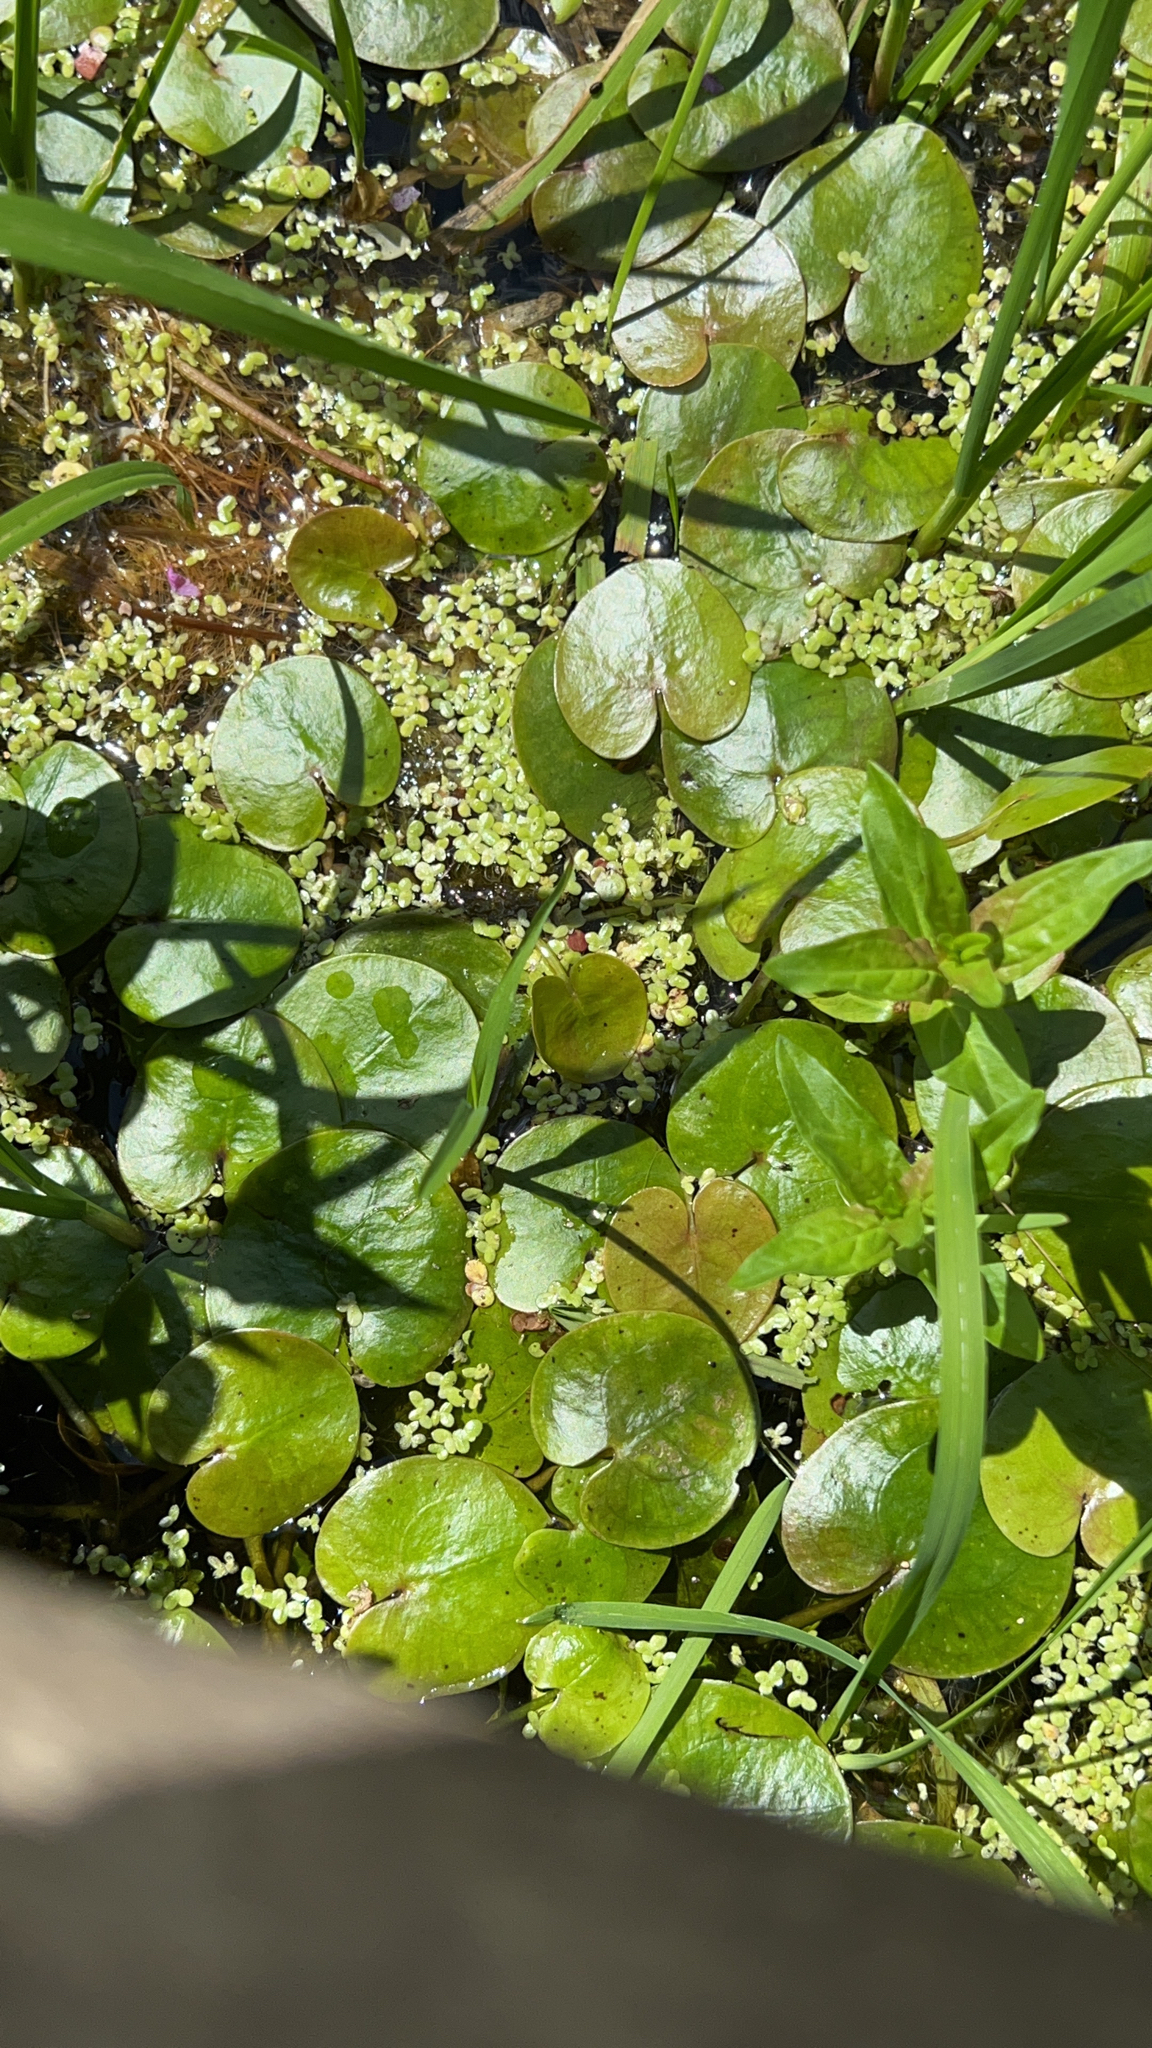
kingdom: Plantae
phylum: Tracheophyta
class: Liliopsida
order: Alismatales
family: Hydrocharitaceae
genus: Hydrocharis
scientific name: Hydrocharis morsus-ranae
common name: Frogbit
